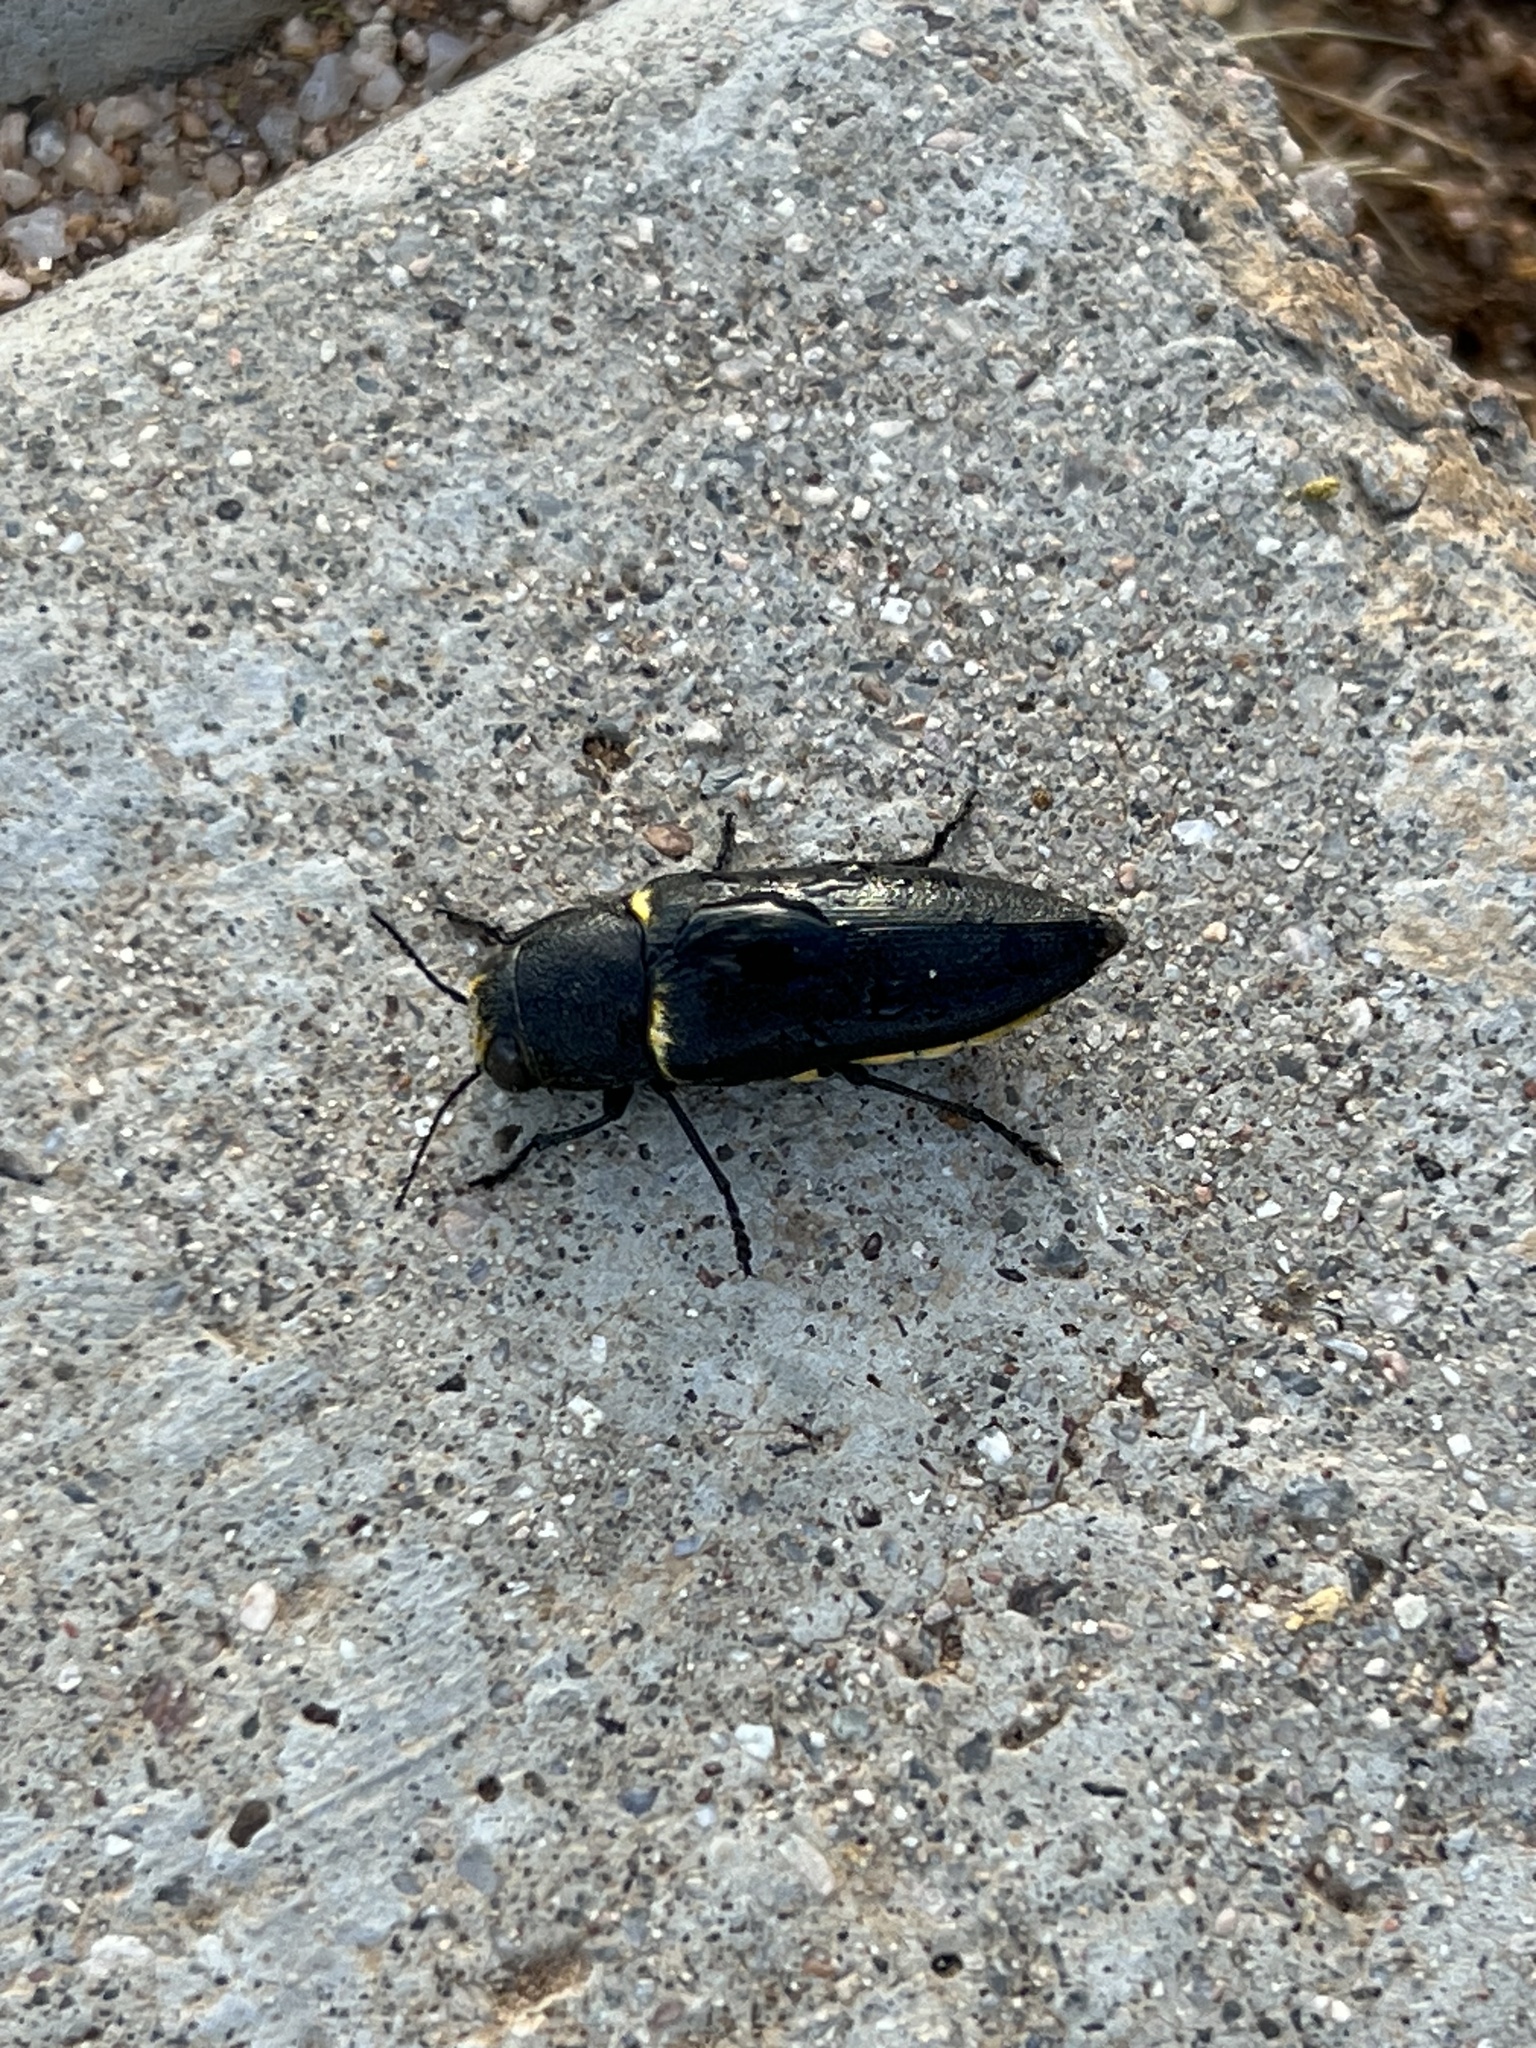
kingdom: Animalia
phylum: Arthropoda
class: Insecta
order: Coleoptera
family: Buprestidae
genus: Hippomelas
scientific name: Hippomelas sphenicus
